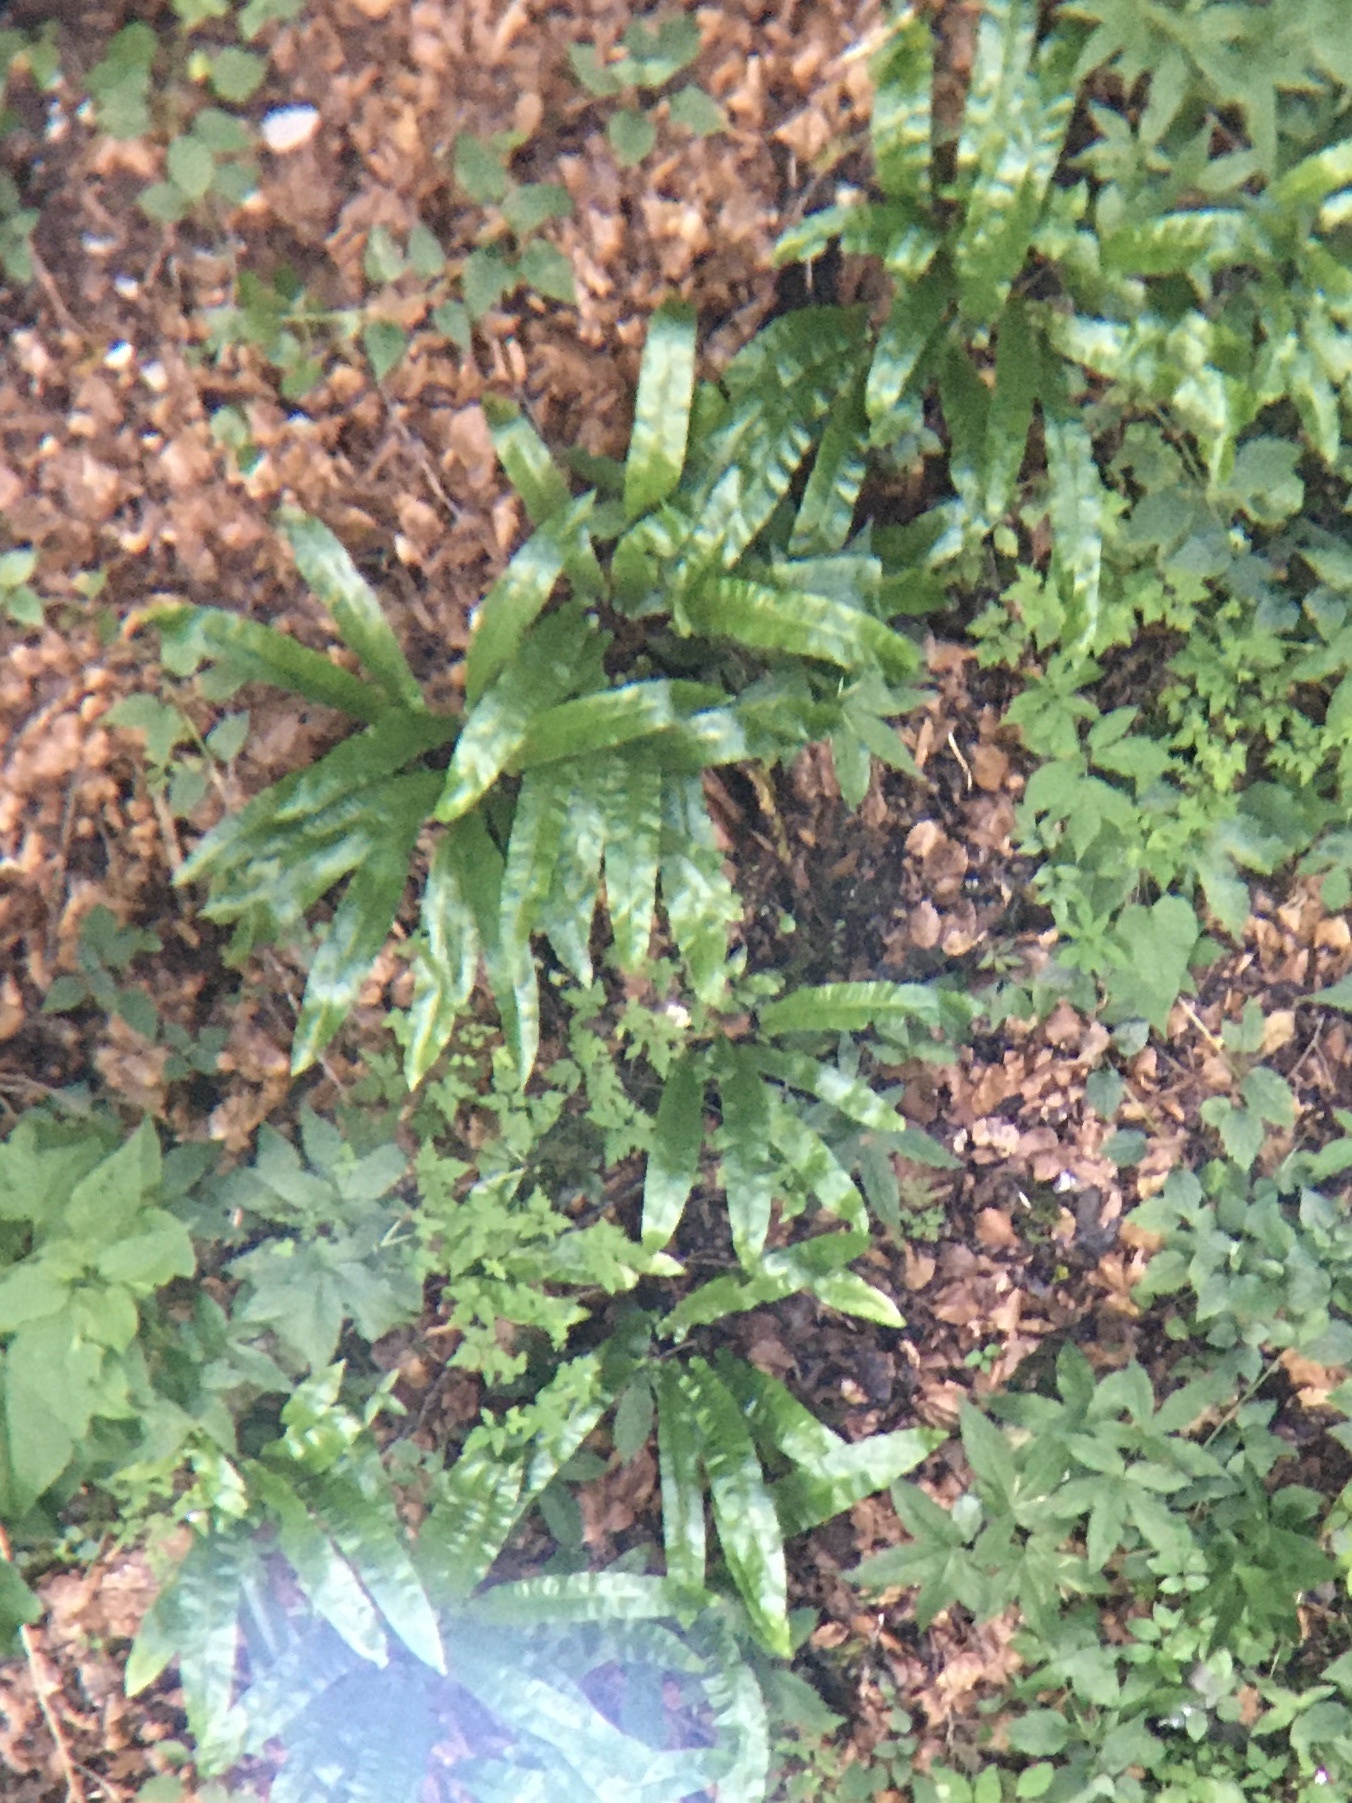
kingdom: Plantae
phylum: Tracheophyta
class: Polypodiopsida
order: Polypodiales
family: Aspleniaceae
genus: Asplenium
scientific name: Asplenium scolopendrium
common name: Hart's-tongue fern
